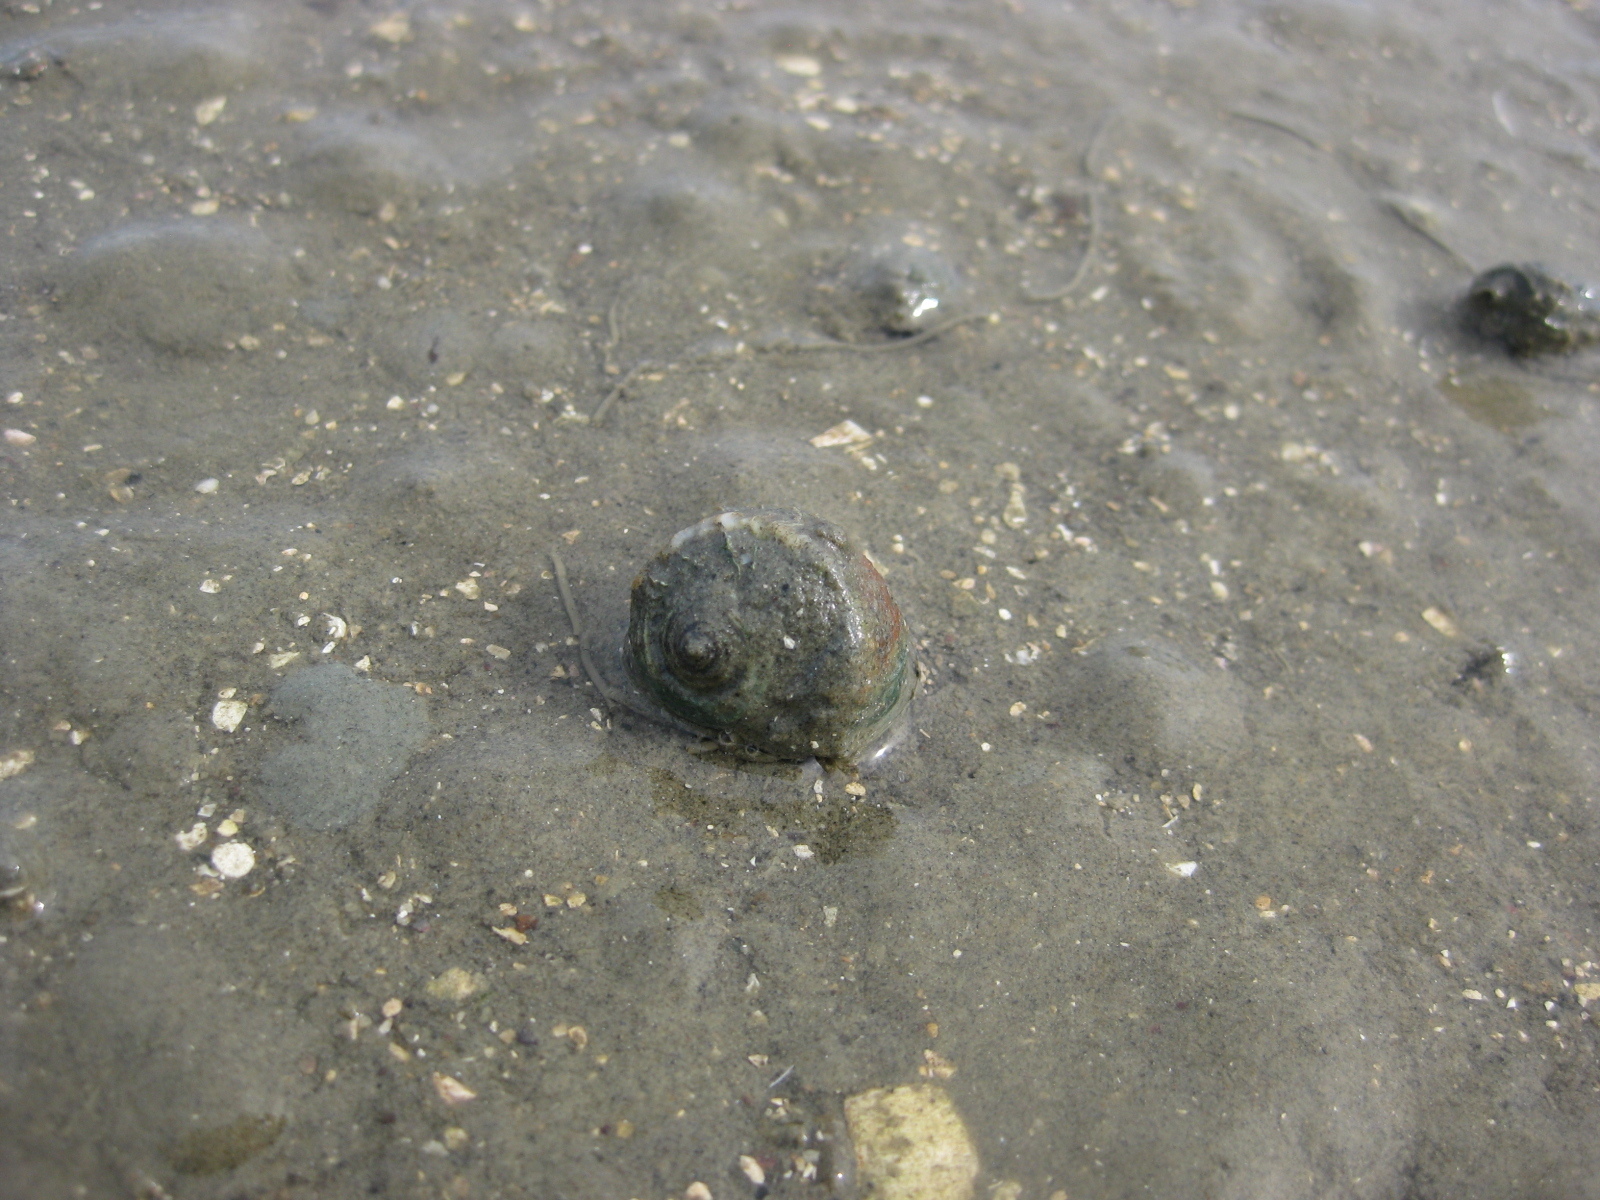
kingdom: Animalia
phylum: Mollusca
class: Gastropoda
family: Amphibolidae
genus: Amphibola
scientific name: Amphibola crenata
